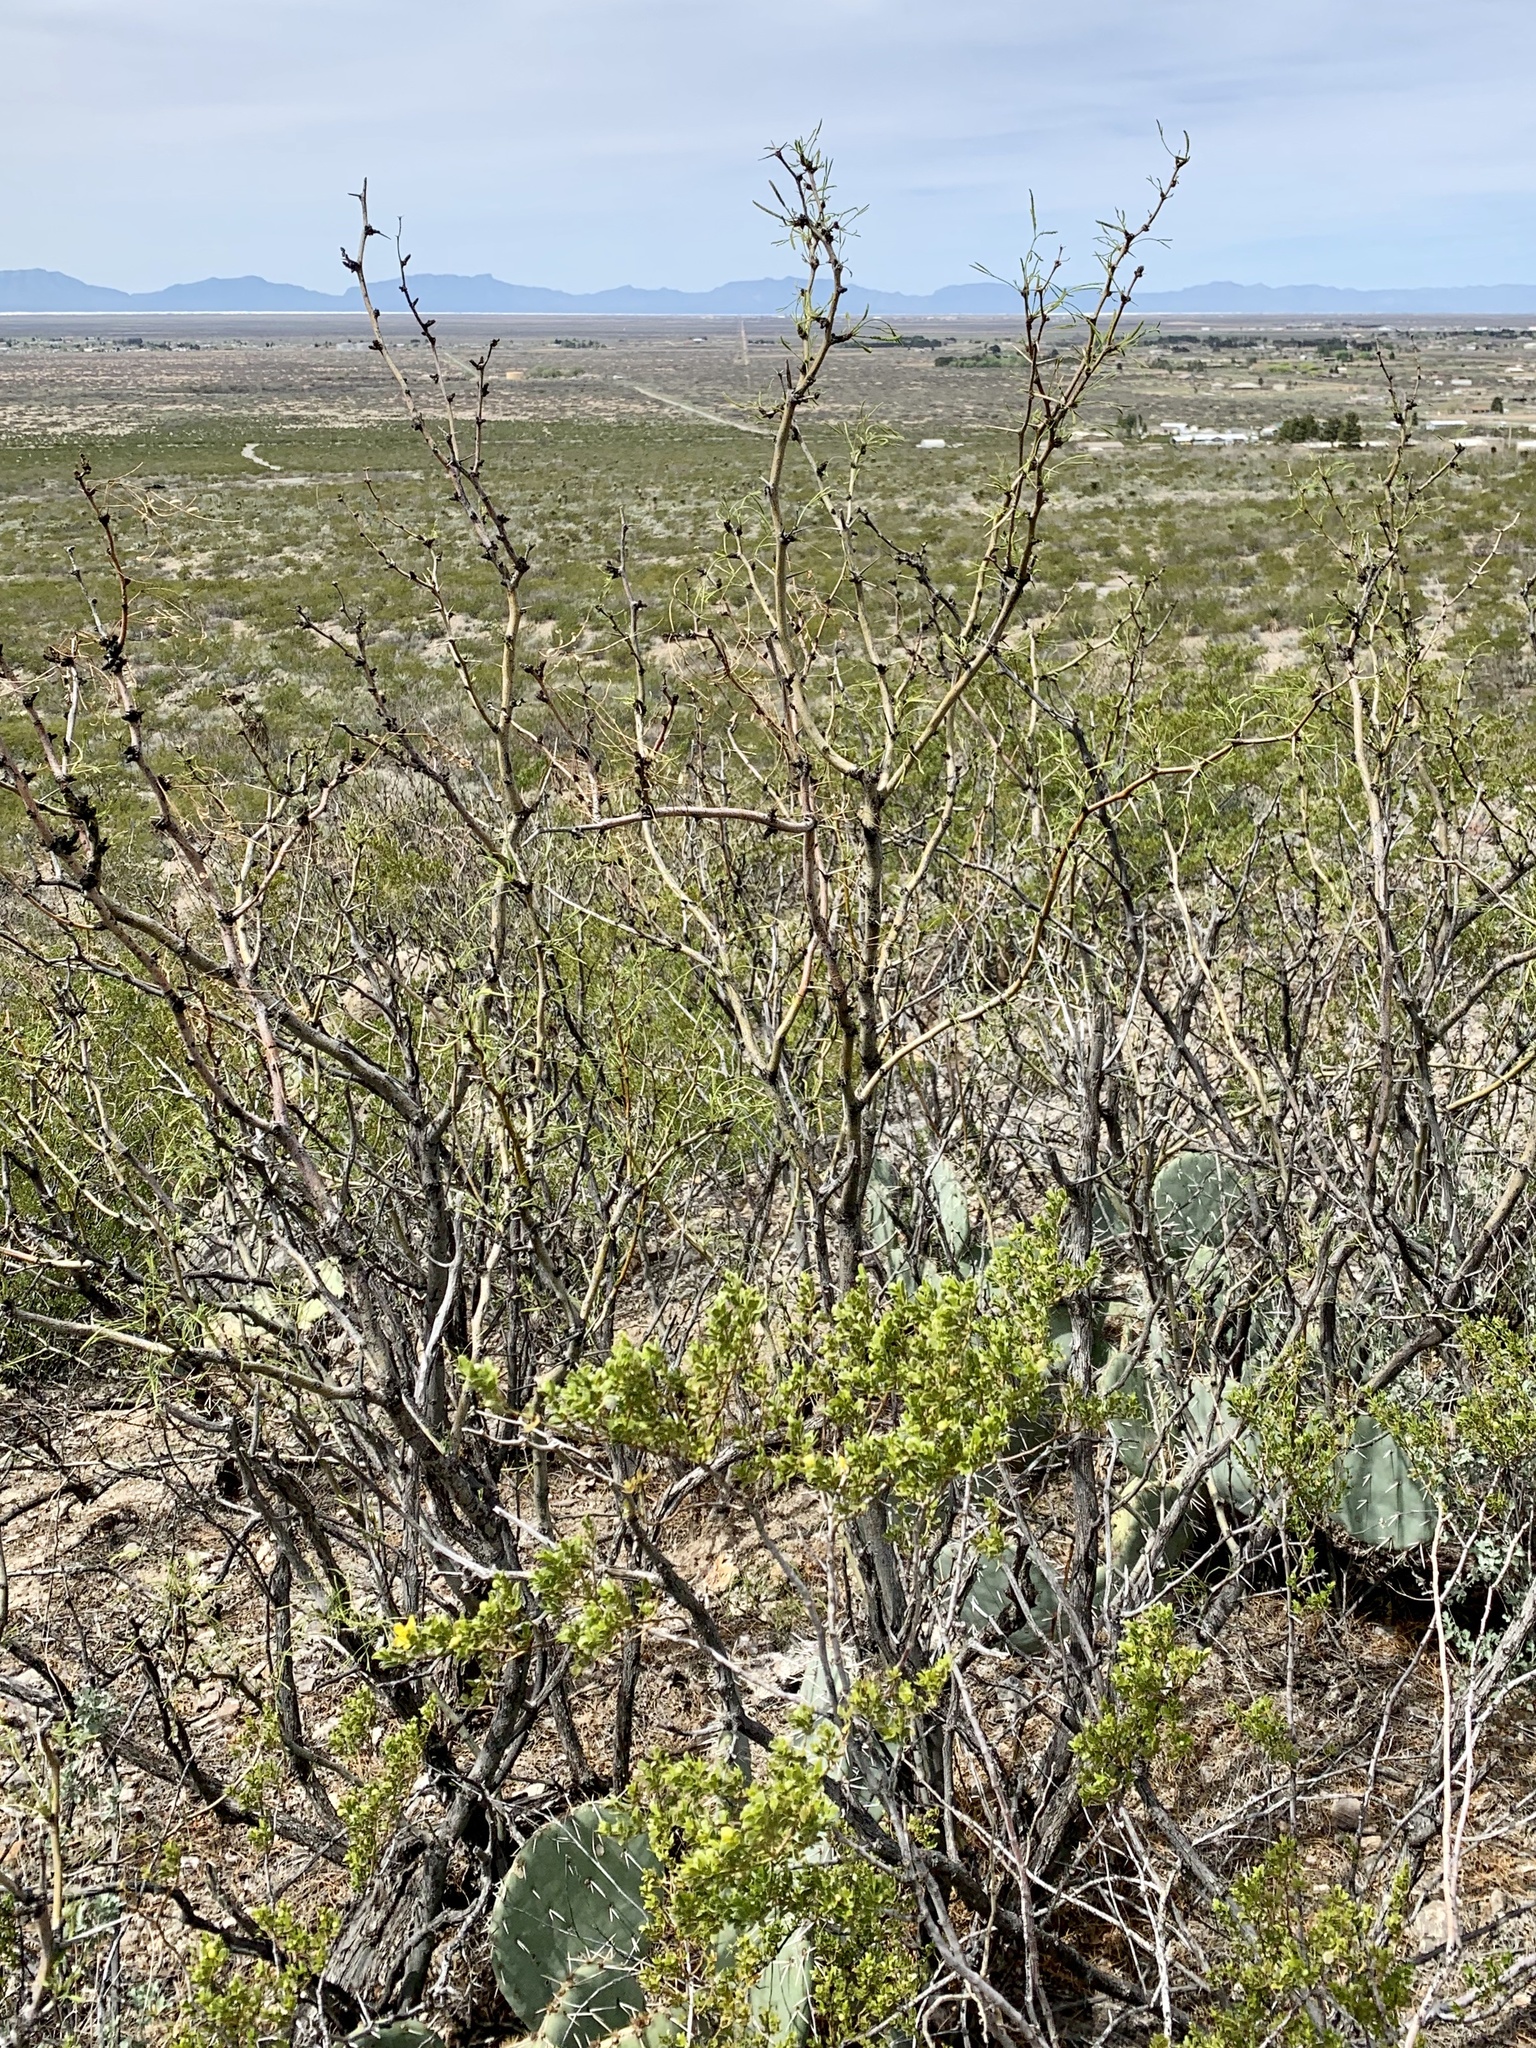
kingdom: Plantae
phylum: Tracheophyta
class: Magnoliopsida
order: Fabales
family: Fabaceae
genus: Prosopis
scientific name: Prosopis glandulosa
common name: Honey mesquite
